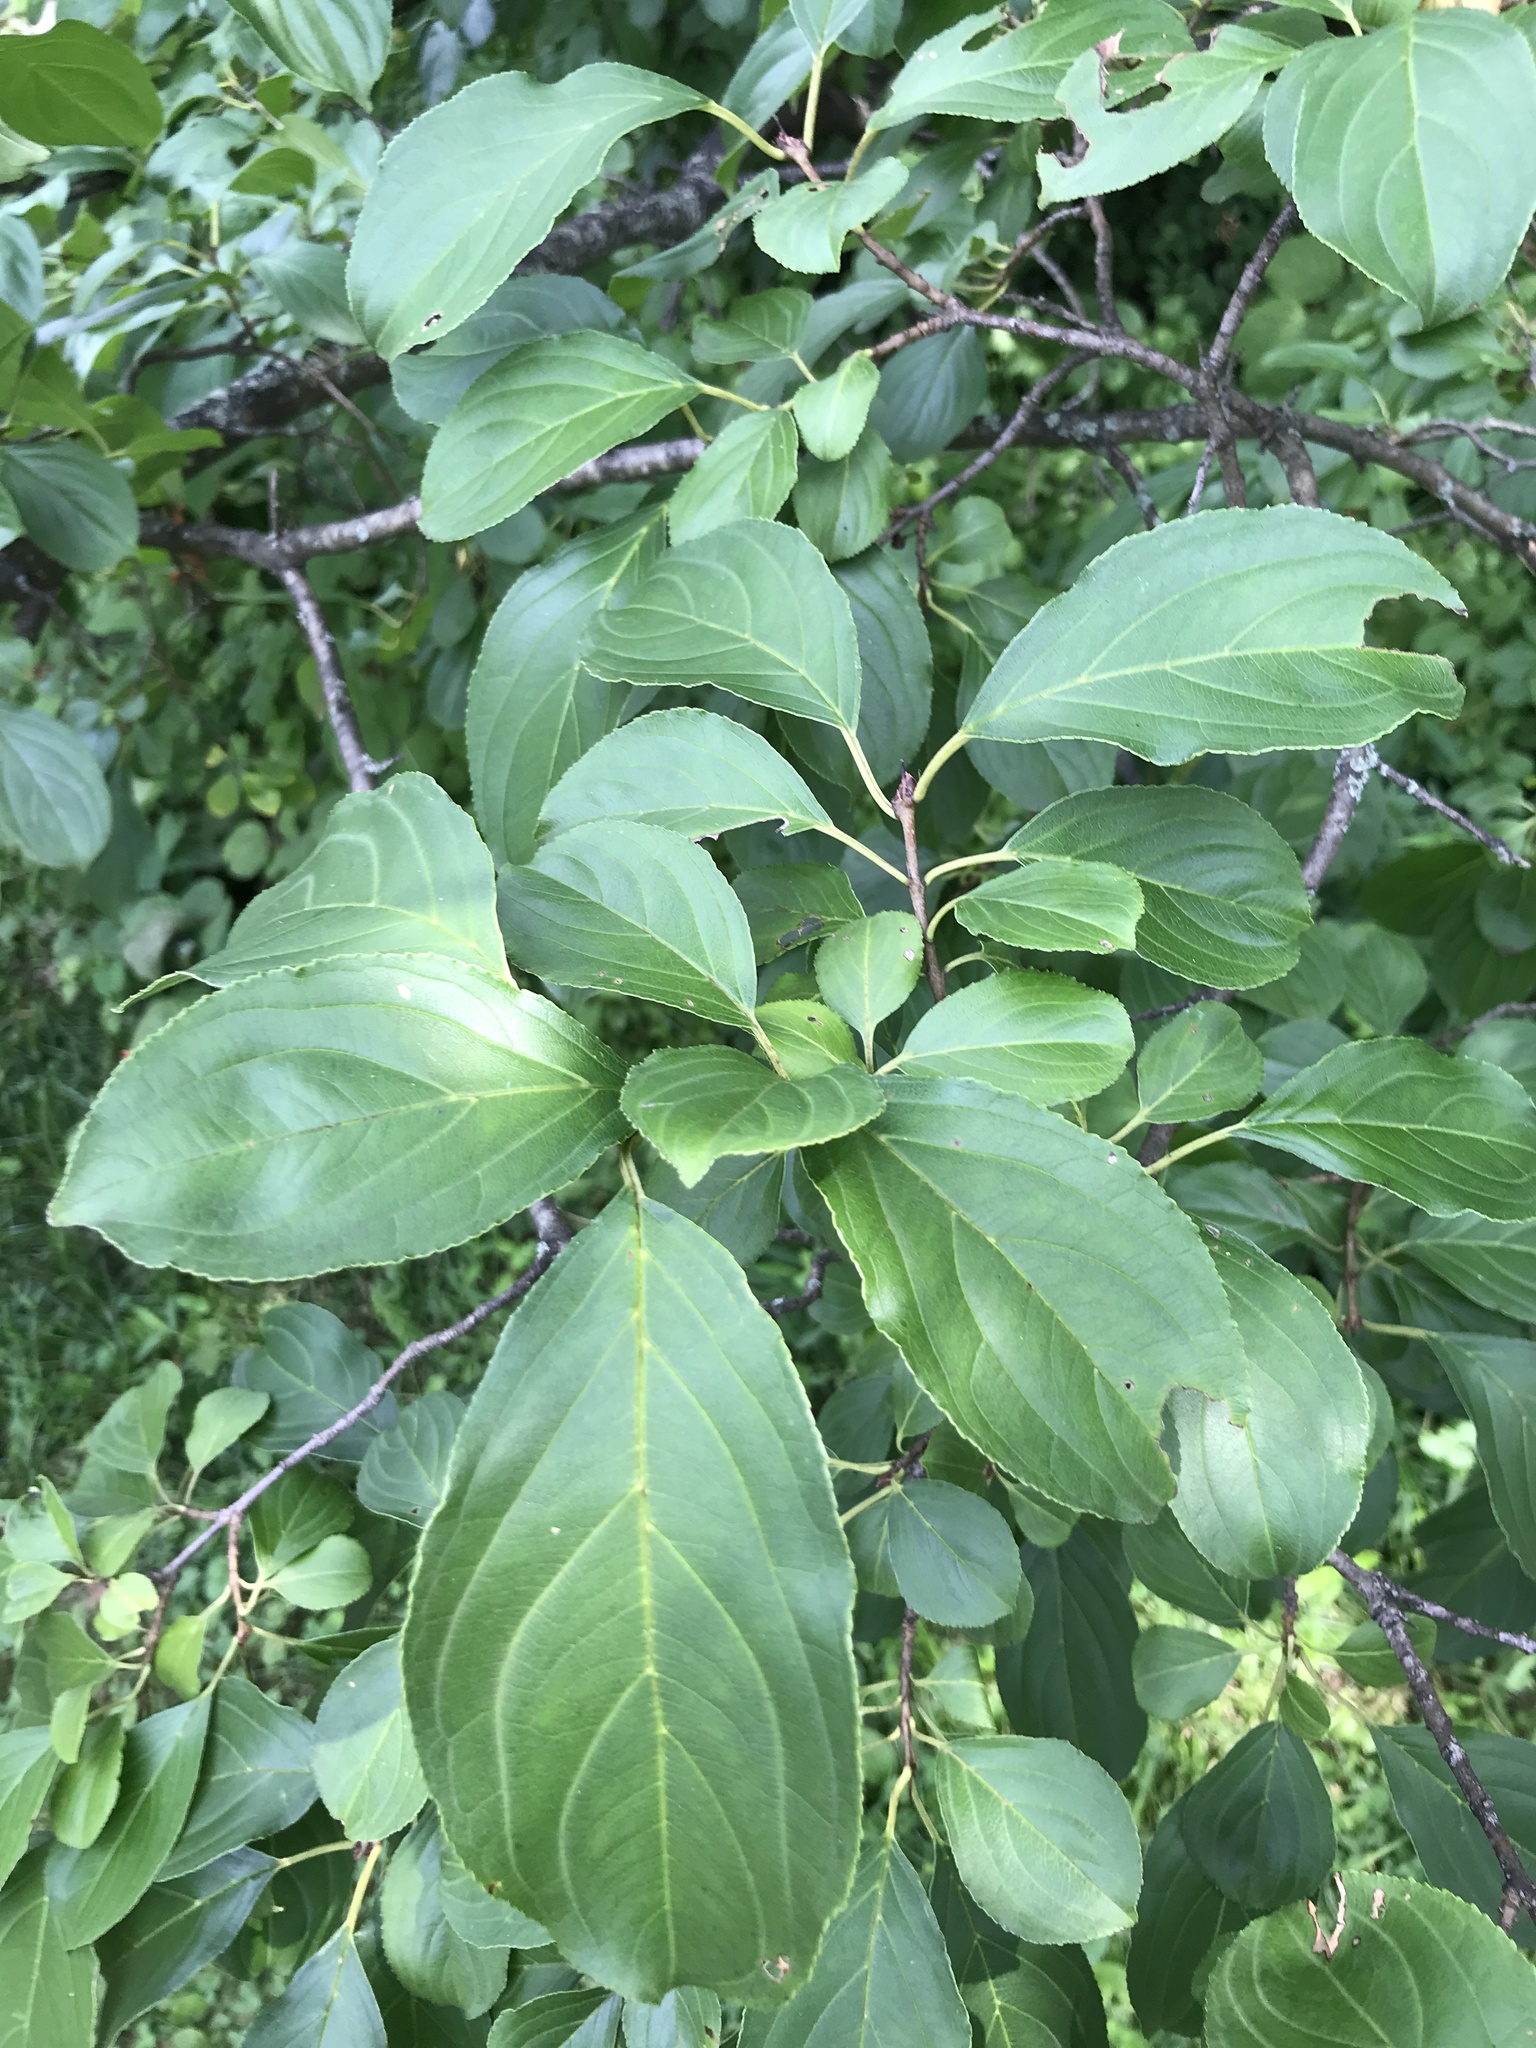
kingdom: Plantae
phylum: Tracheophyta
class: Magnoliopsida
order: Rosales
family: Rhamnaceae
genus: Rhamnus
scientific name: Rhamnus cathartica
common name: Common buckthorn
